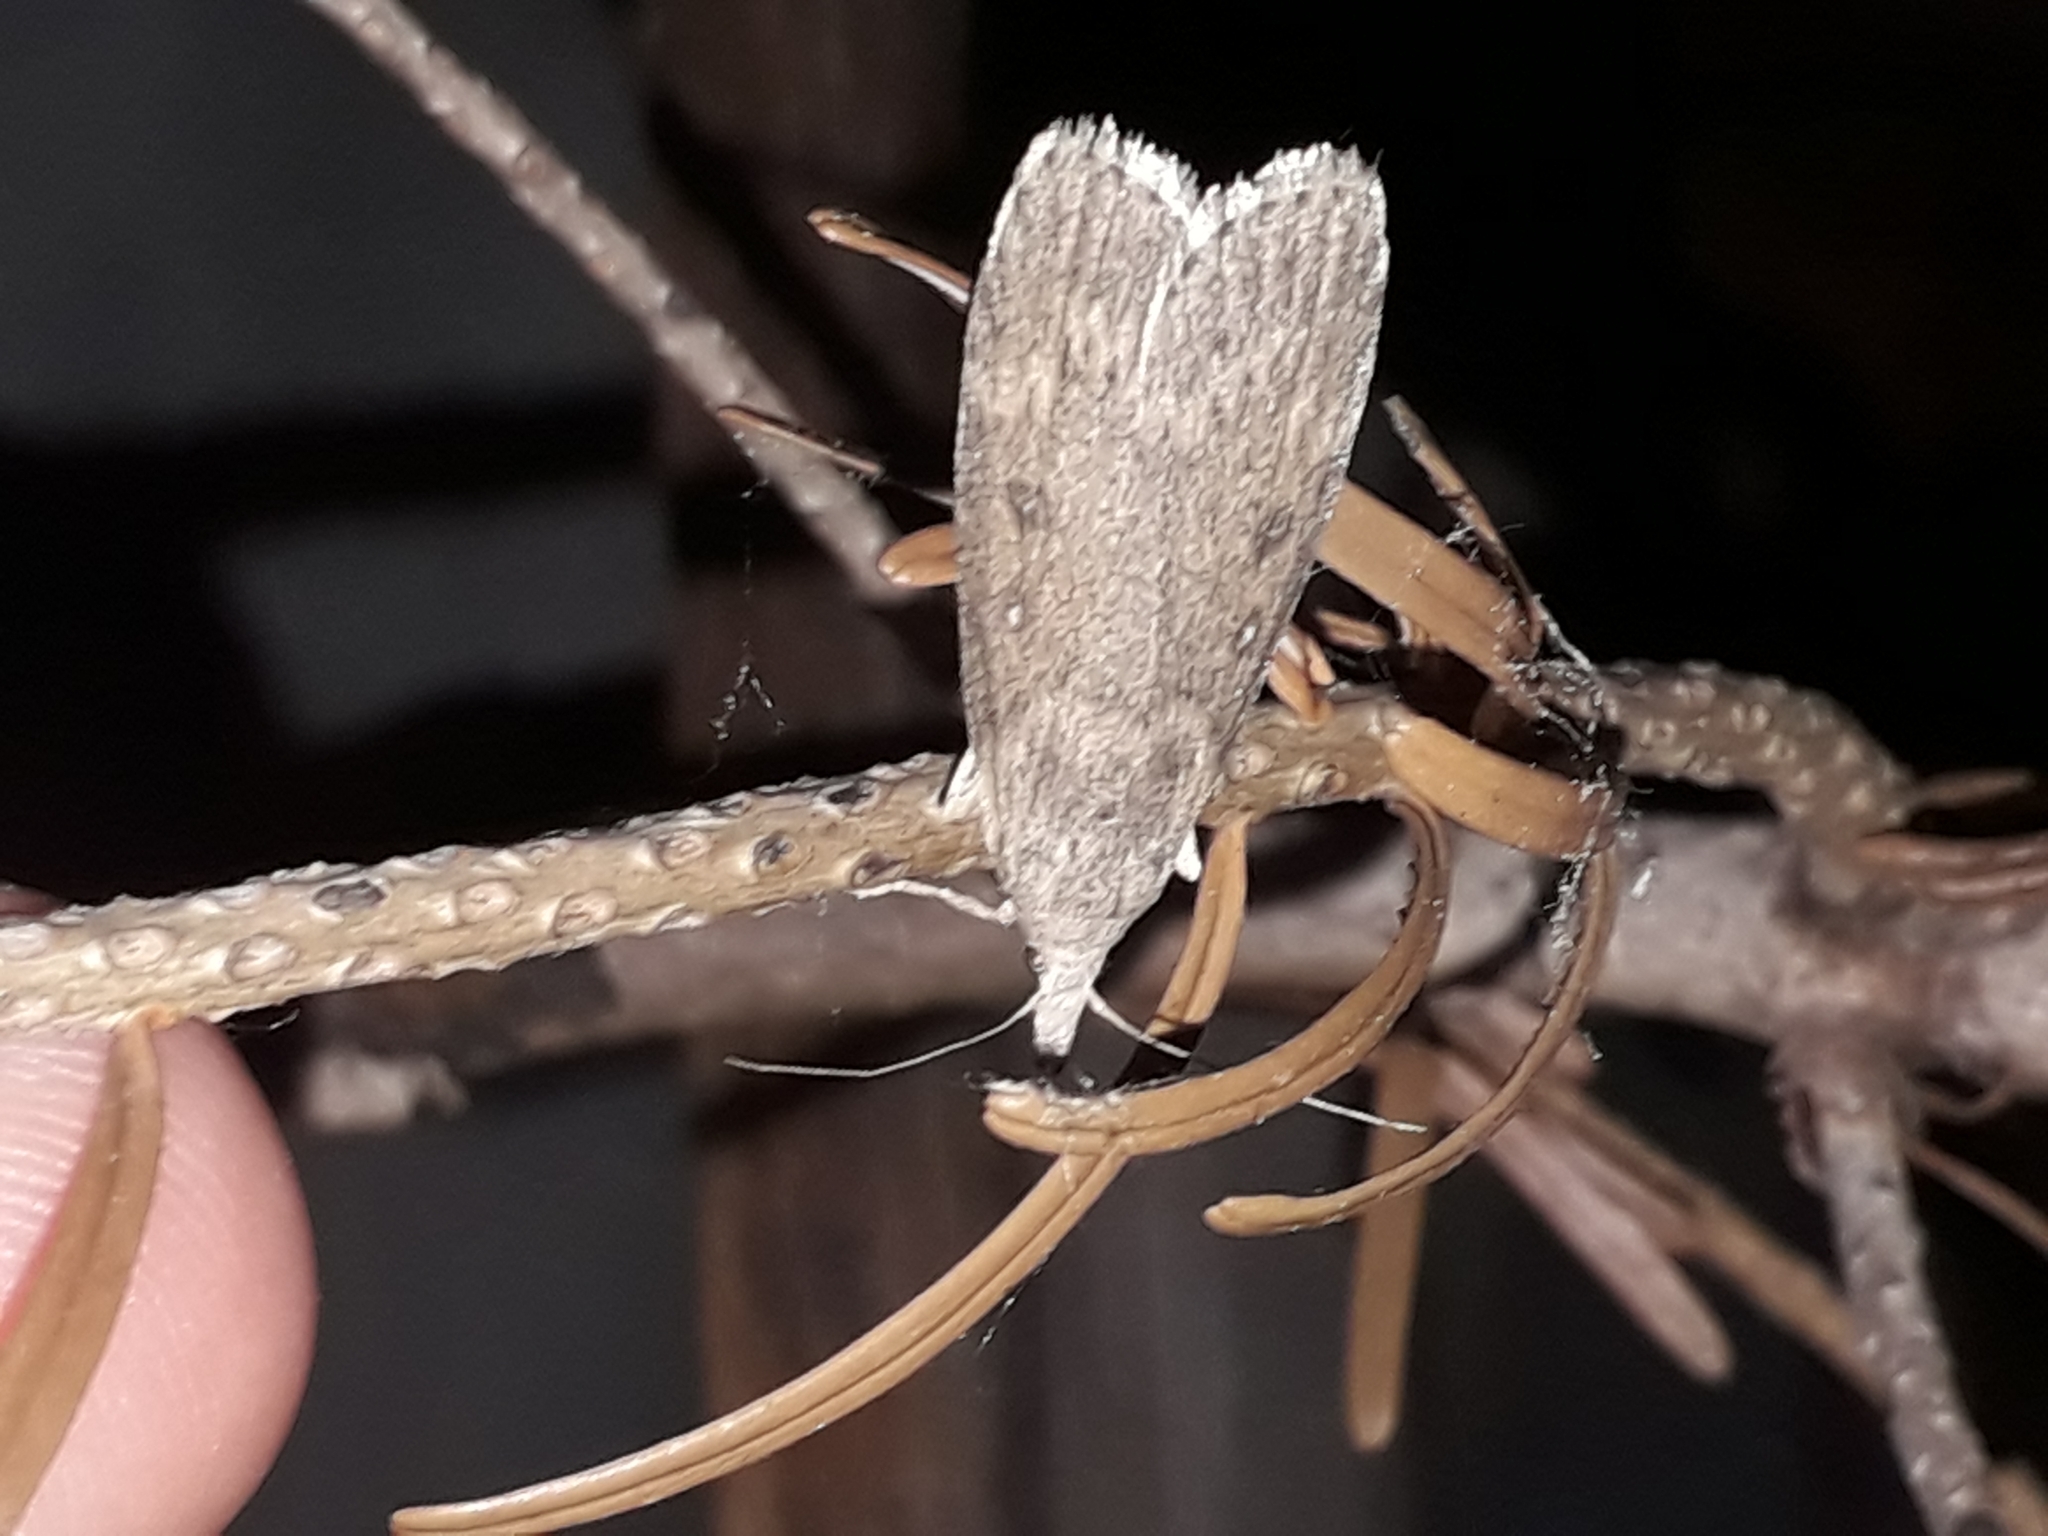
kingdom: Animalia
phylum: Arthropoda
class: Insecta
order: Lepidoptera
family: Pyralidae
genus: Lamoria
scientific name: Lamoria anella
